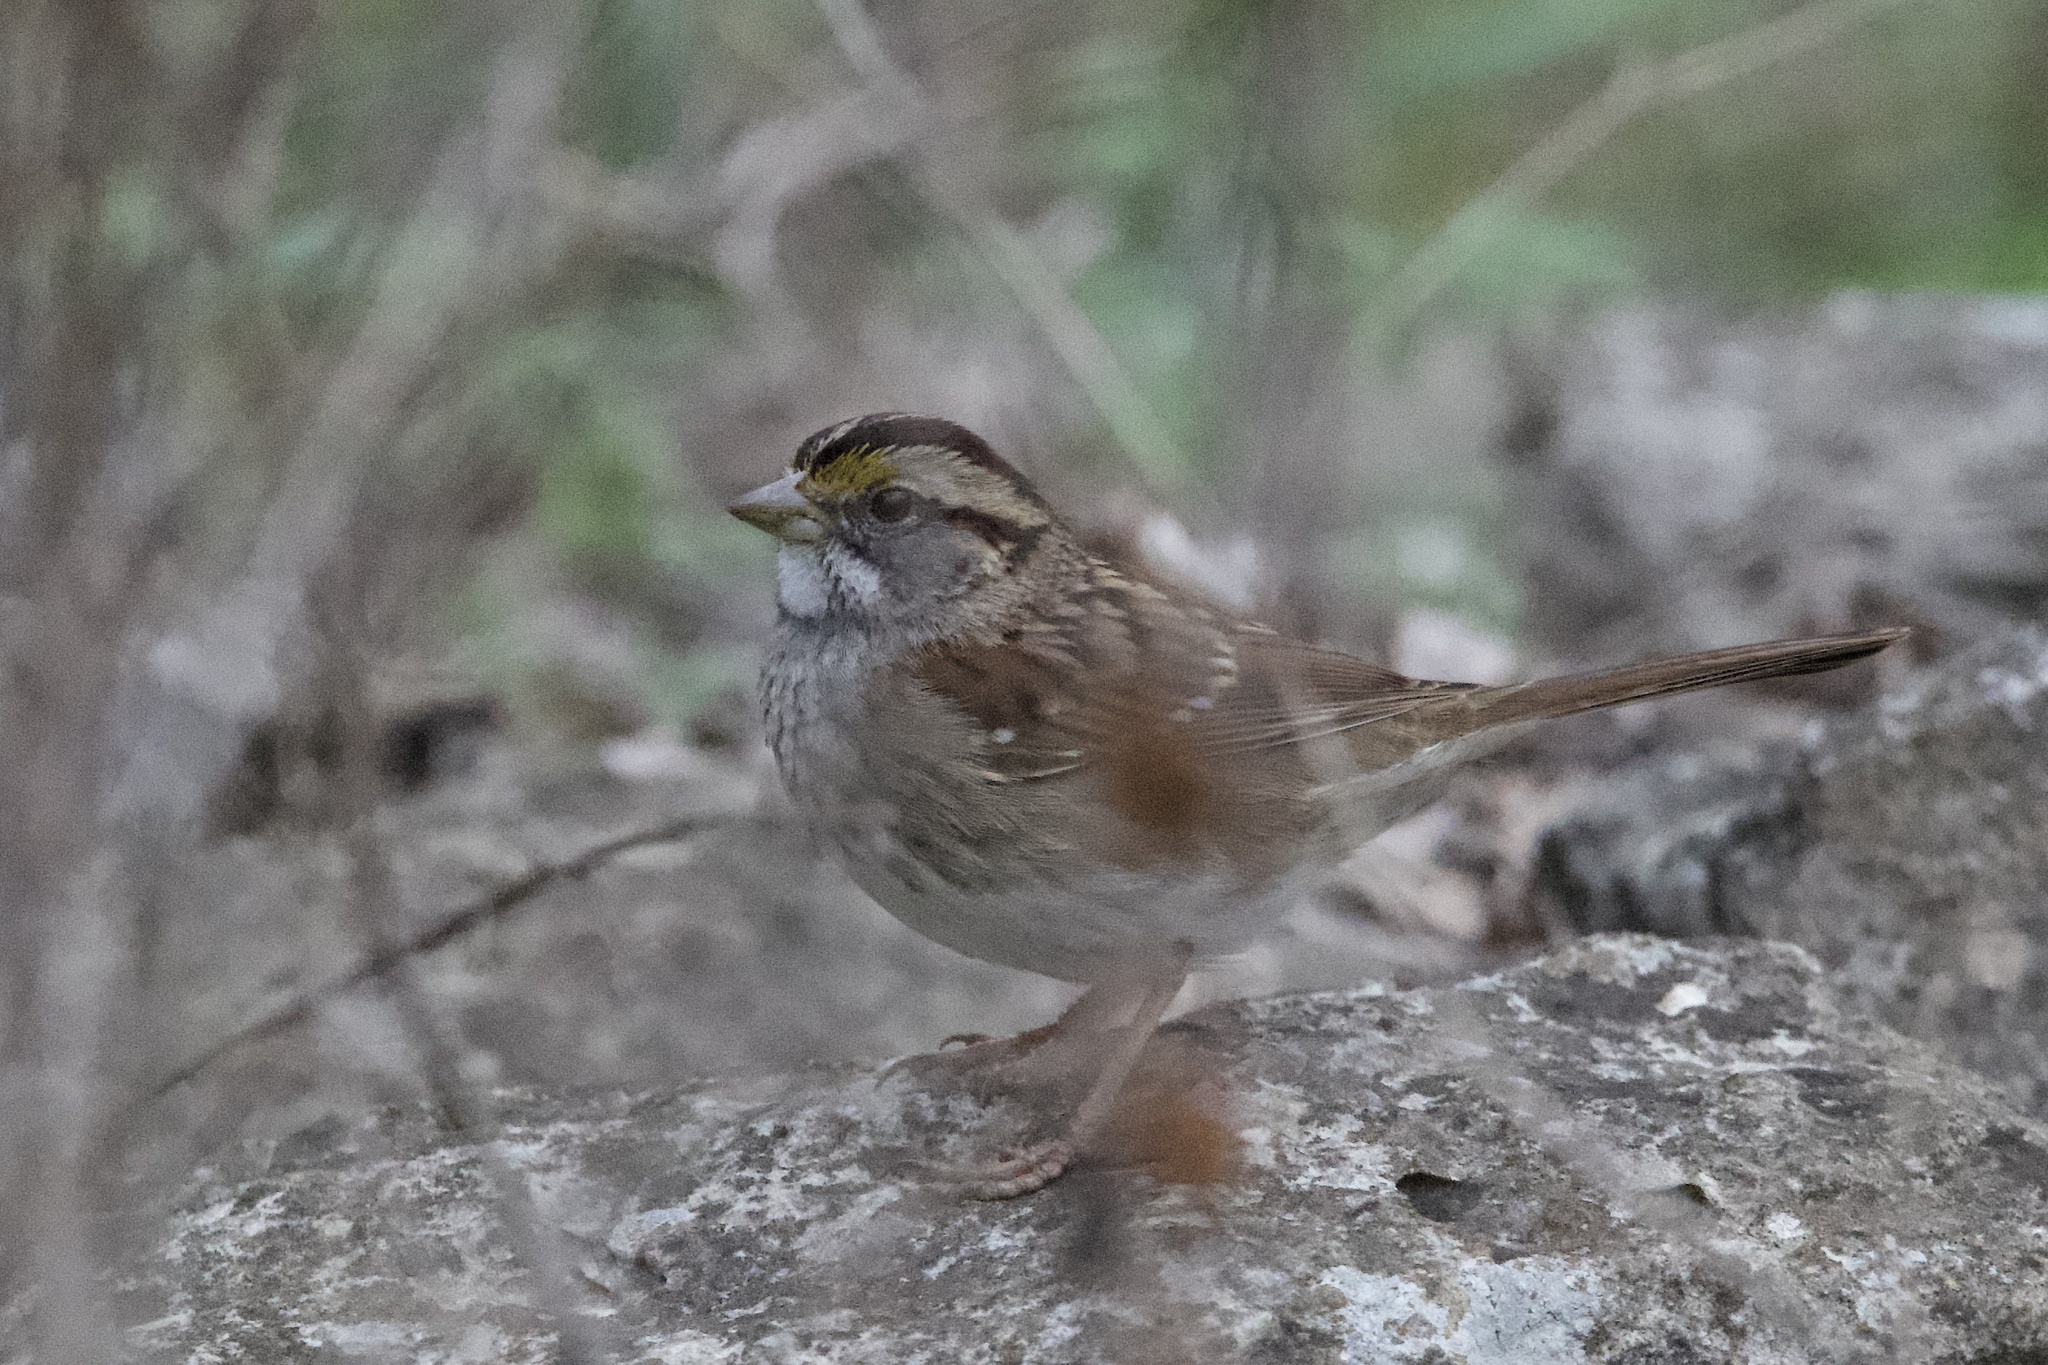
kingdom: Animalia
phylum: Chordata
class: Aves
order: Passeriformes
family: Passerellidae
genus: Zonotrichia
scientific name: Zonotrichia albicollis
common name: White-throated sparrow
